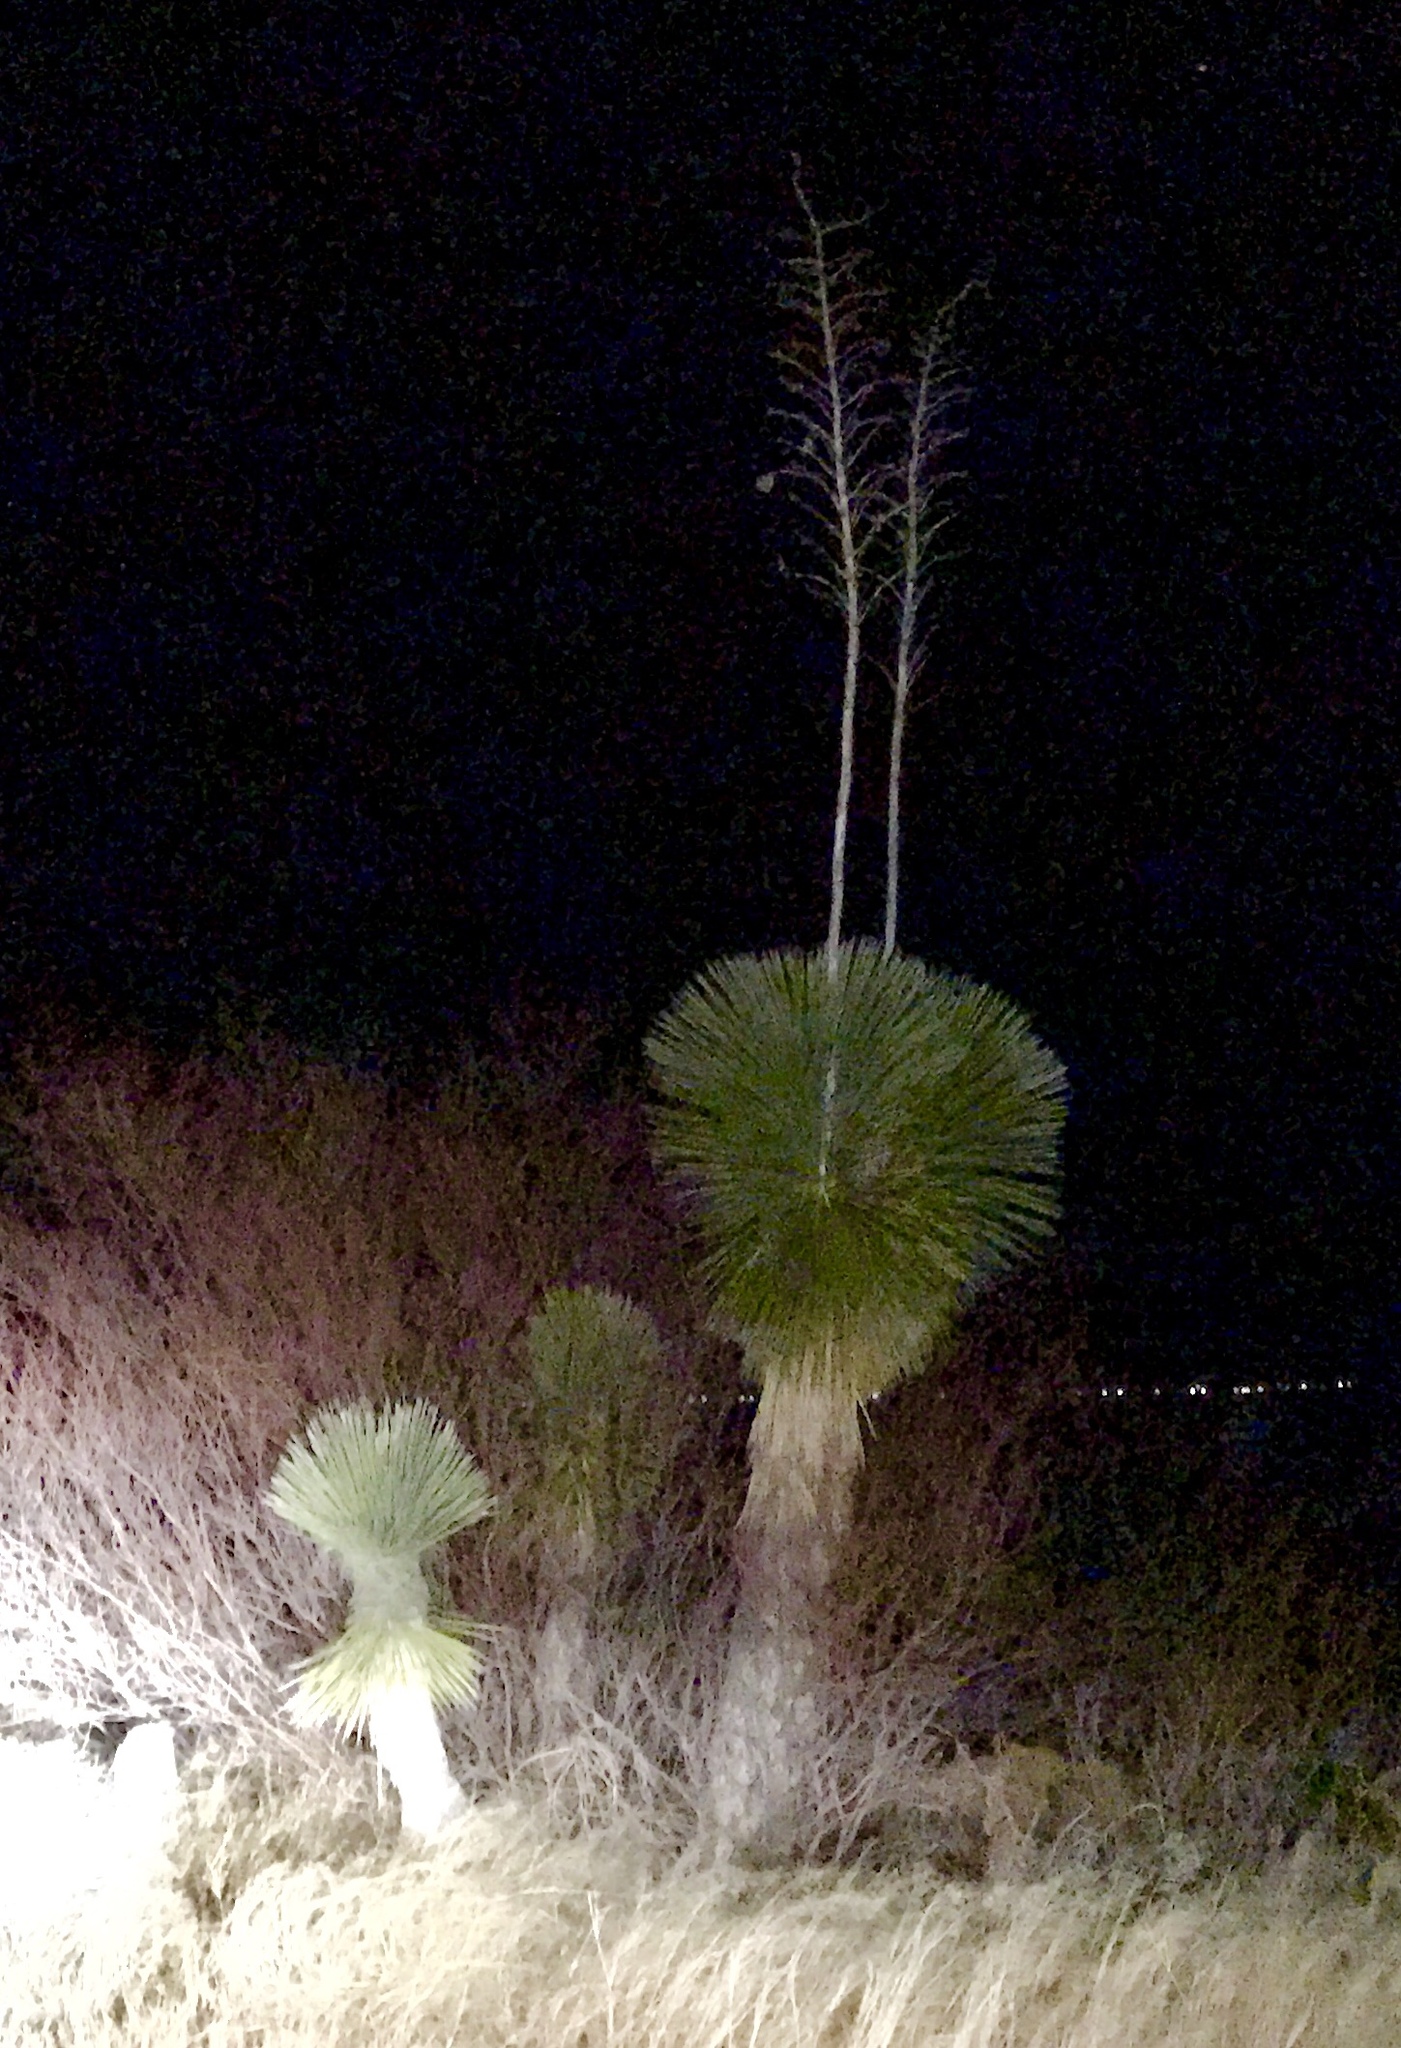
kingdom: Plantae
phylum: Tracheophyta
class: Liliopsida
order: Asparagales
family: Asparagaceae
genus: Yucca
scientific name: Yucca elata
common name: Palmella
